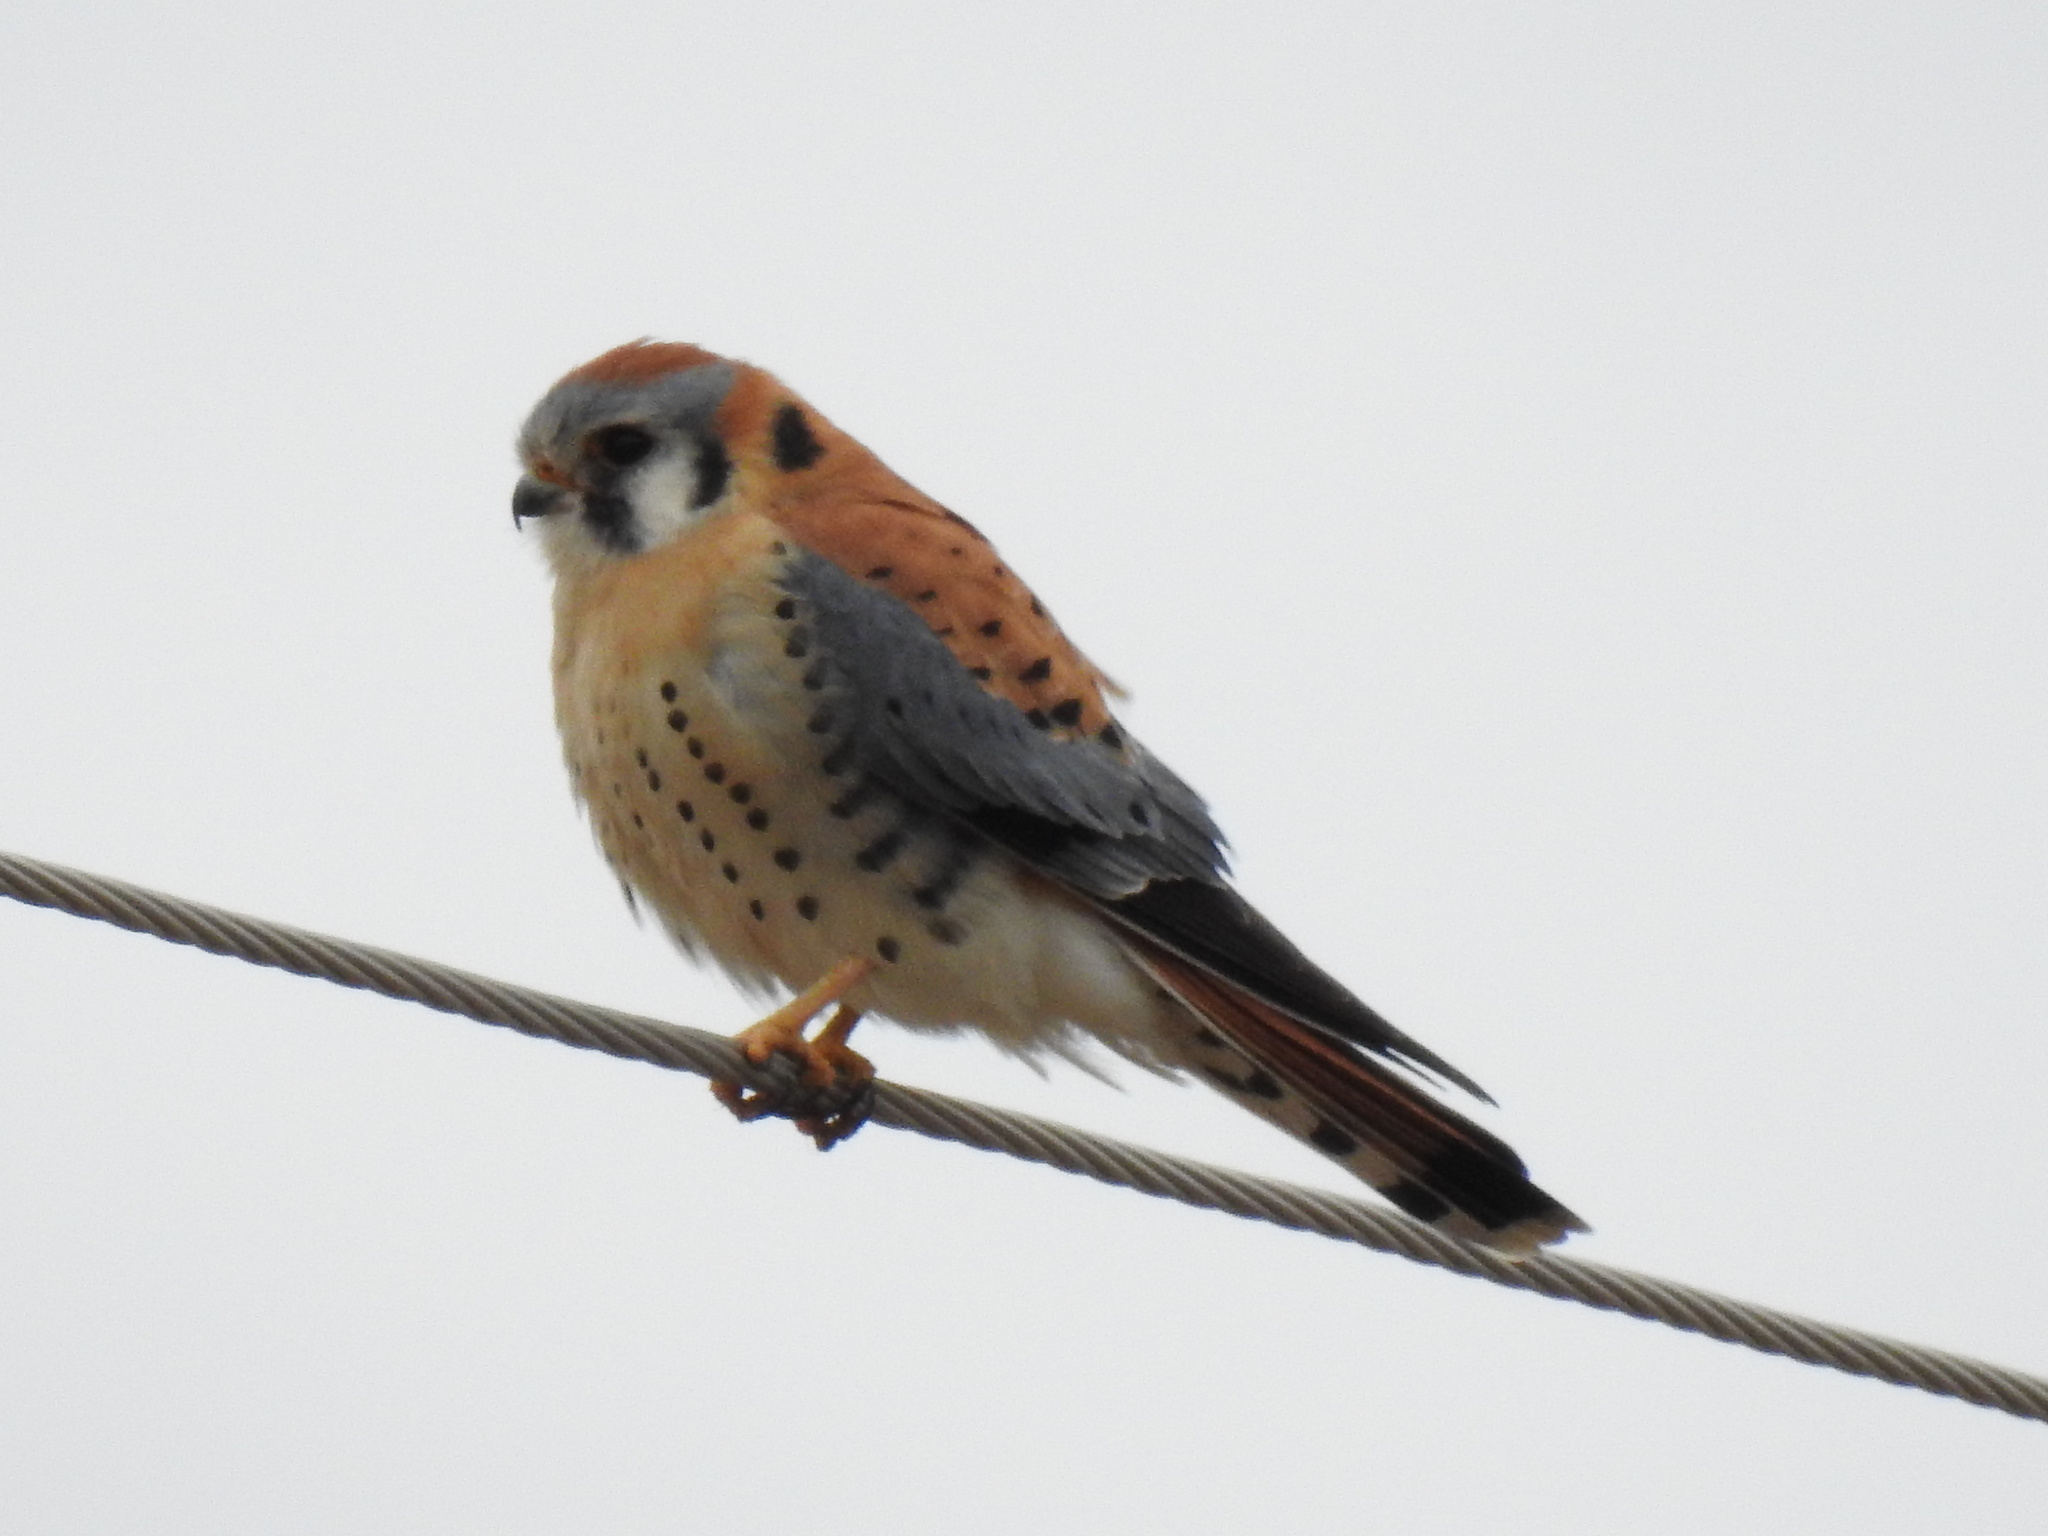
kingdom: Animalia
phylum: Chordata
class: Aves
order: Falconiformes
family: Falconidae
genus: Falco
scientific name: Falco sparverius
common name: American kestrel
